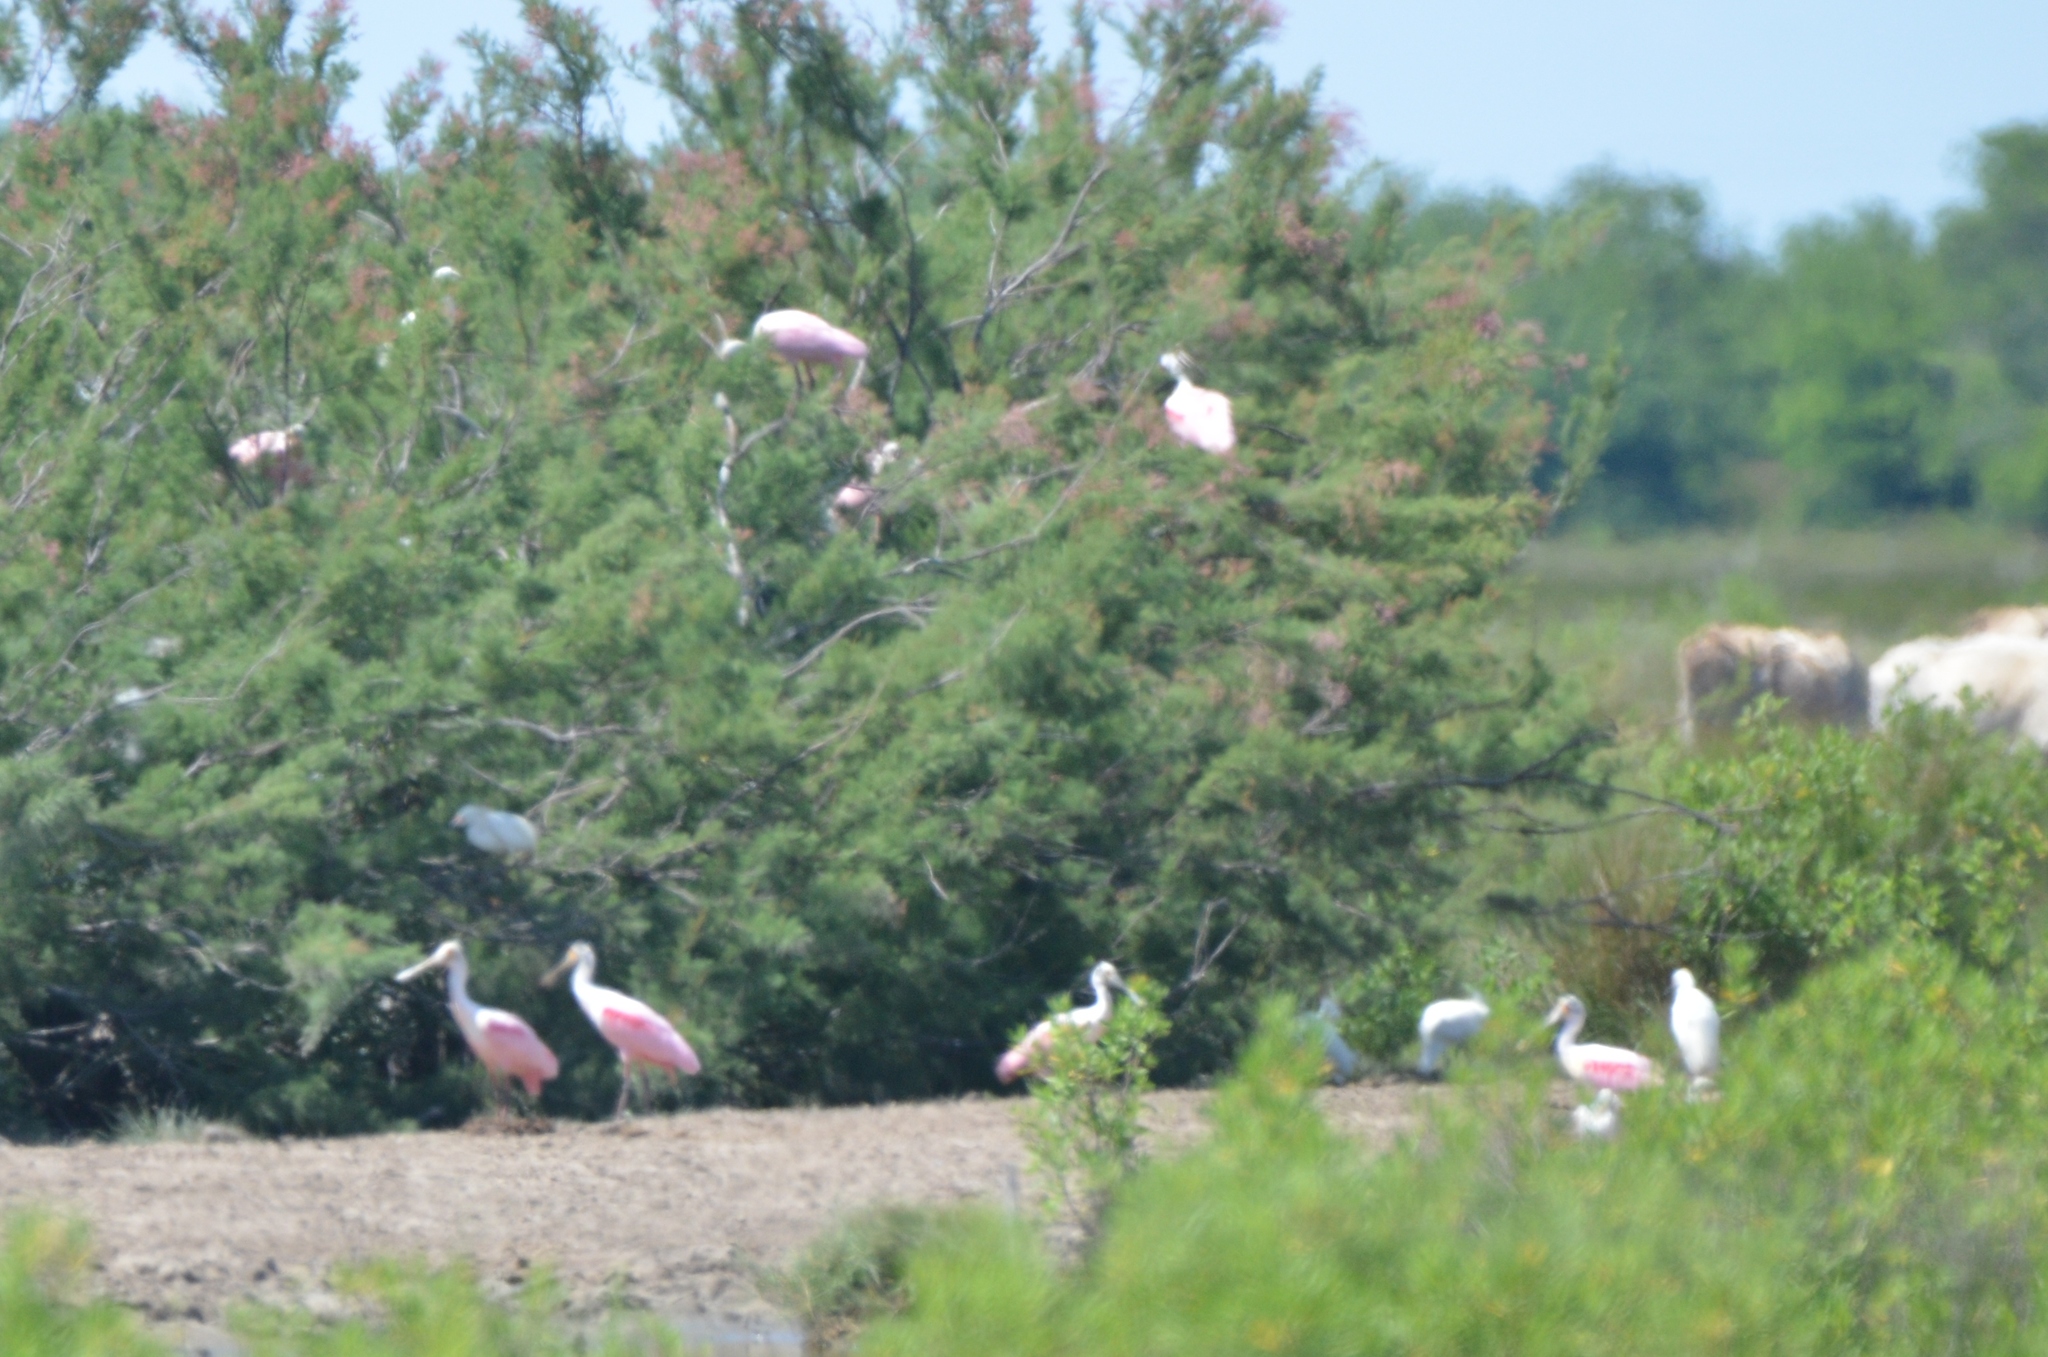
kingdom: Animalia
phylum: Chordata
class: Aves
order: Pelecaniformes
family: Threskiornithidae
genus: Platalea
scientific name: Platalea ajaja
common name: Roseate spoonbill
